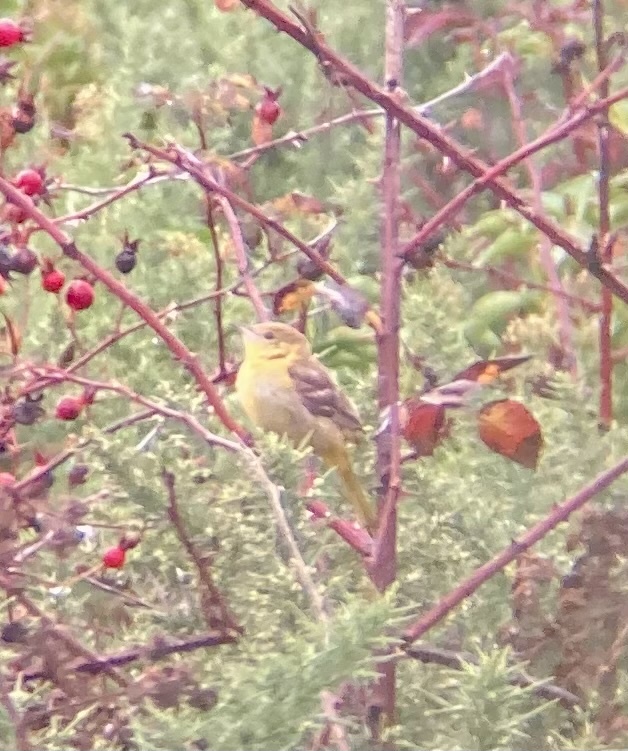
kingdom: Animalia
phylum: Chordata
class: Aves
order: Passeriformes
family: Icteridae
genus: Icterus
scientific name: Icterus spurius
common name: Orchard oriole
